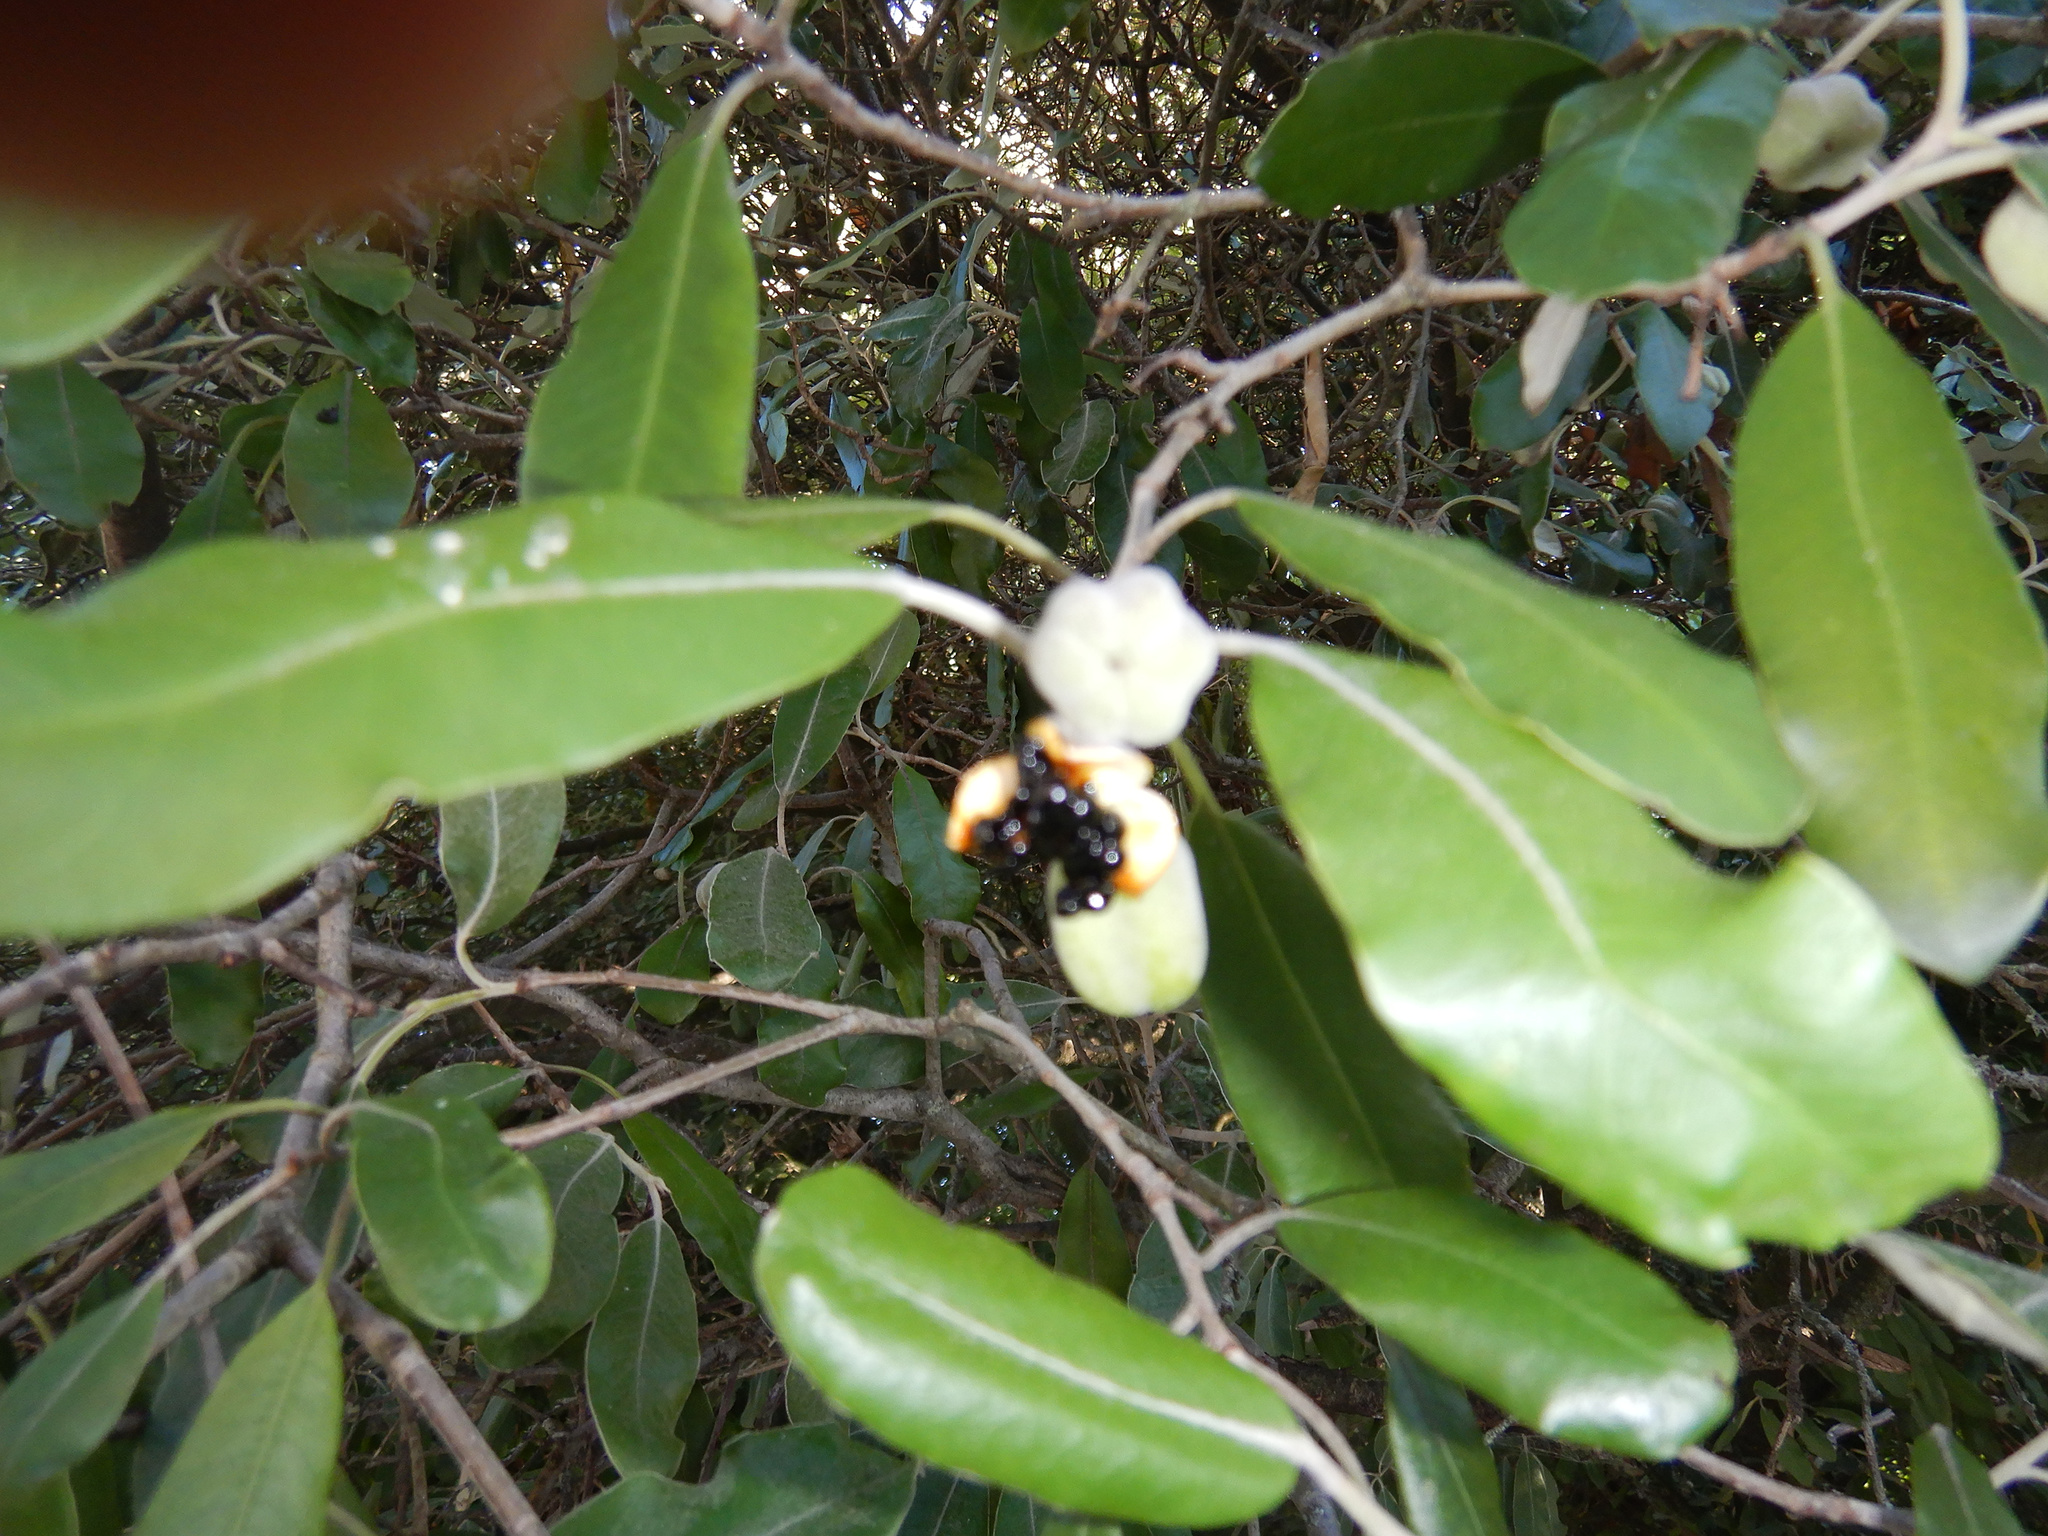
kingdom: Plantae
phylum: Tracheophyta
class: Magnoliopsida
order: Apiales
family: Pittosporaceae
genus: Pittosporum
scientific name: Pittosporum ralphii
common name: Ralph's desertwillow
